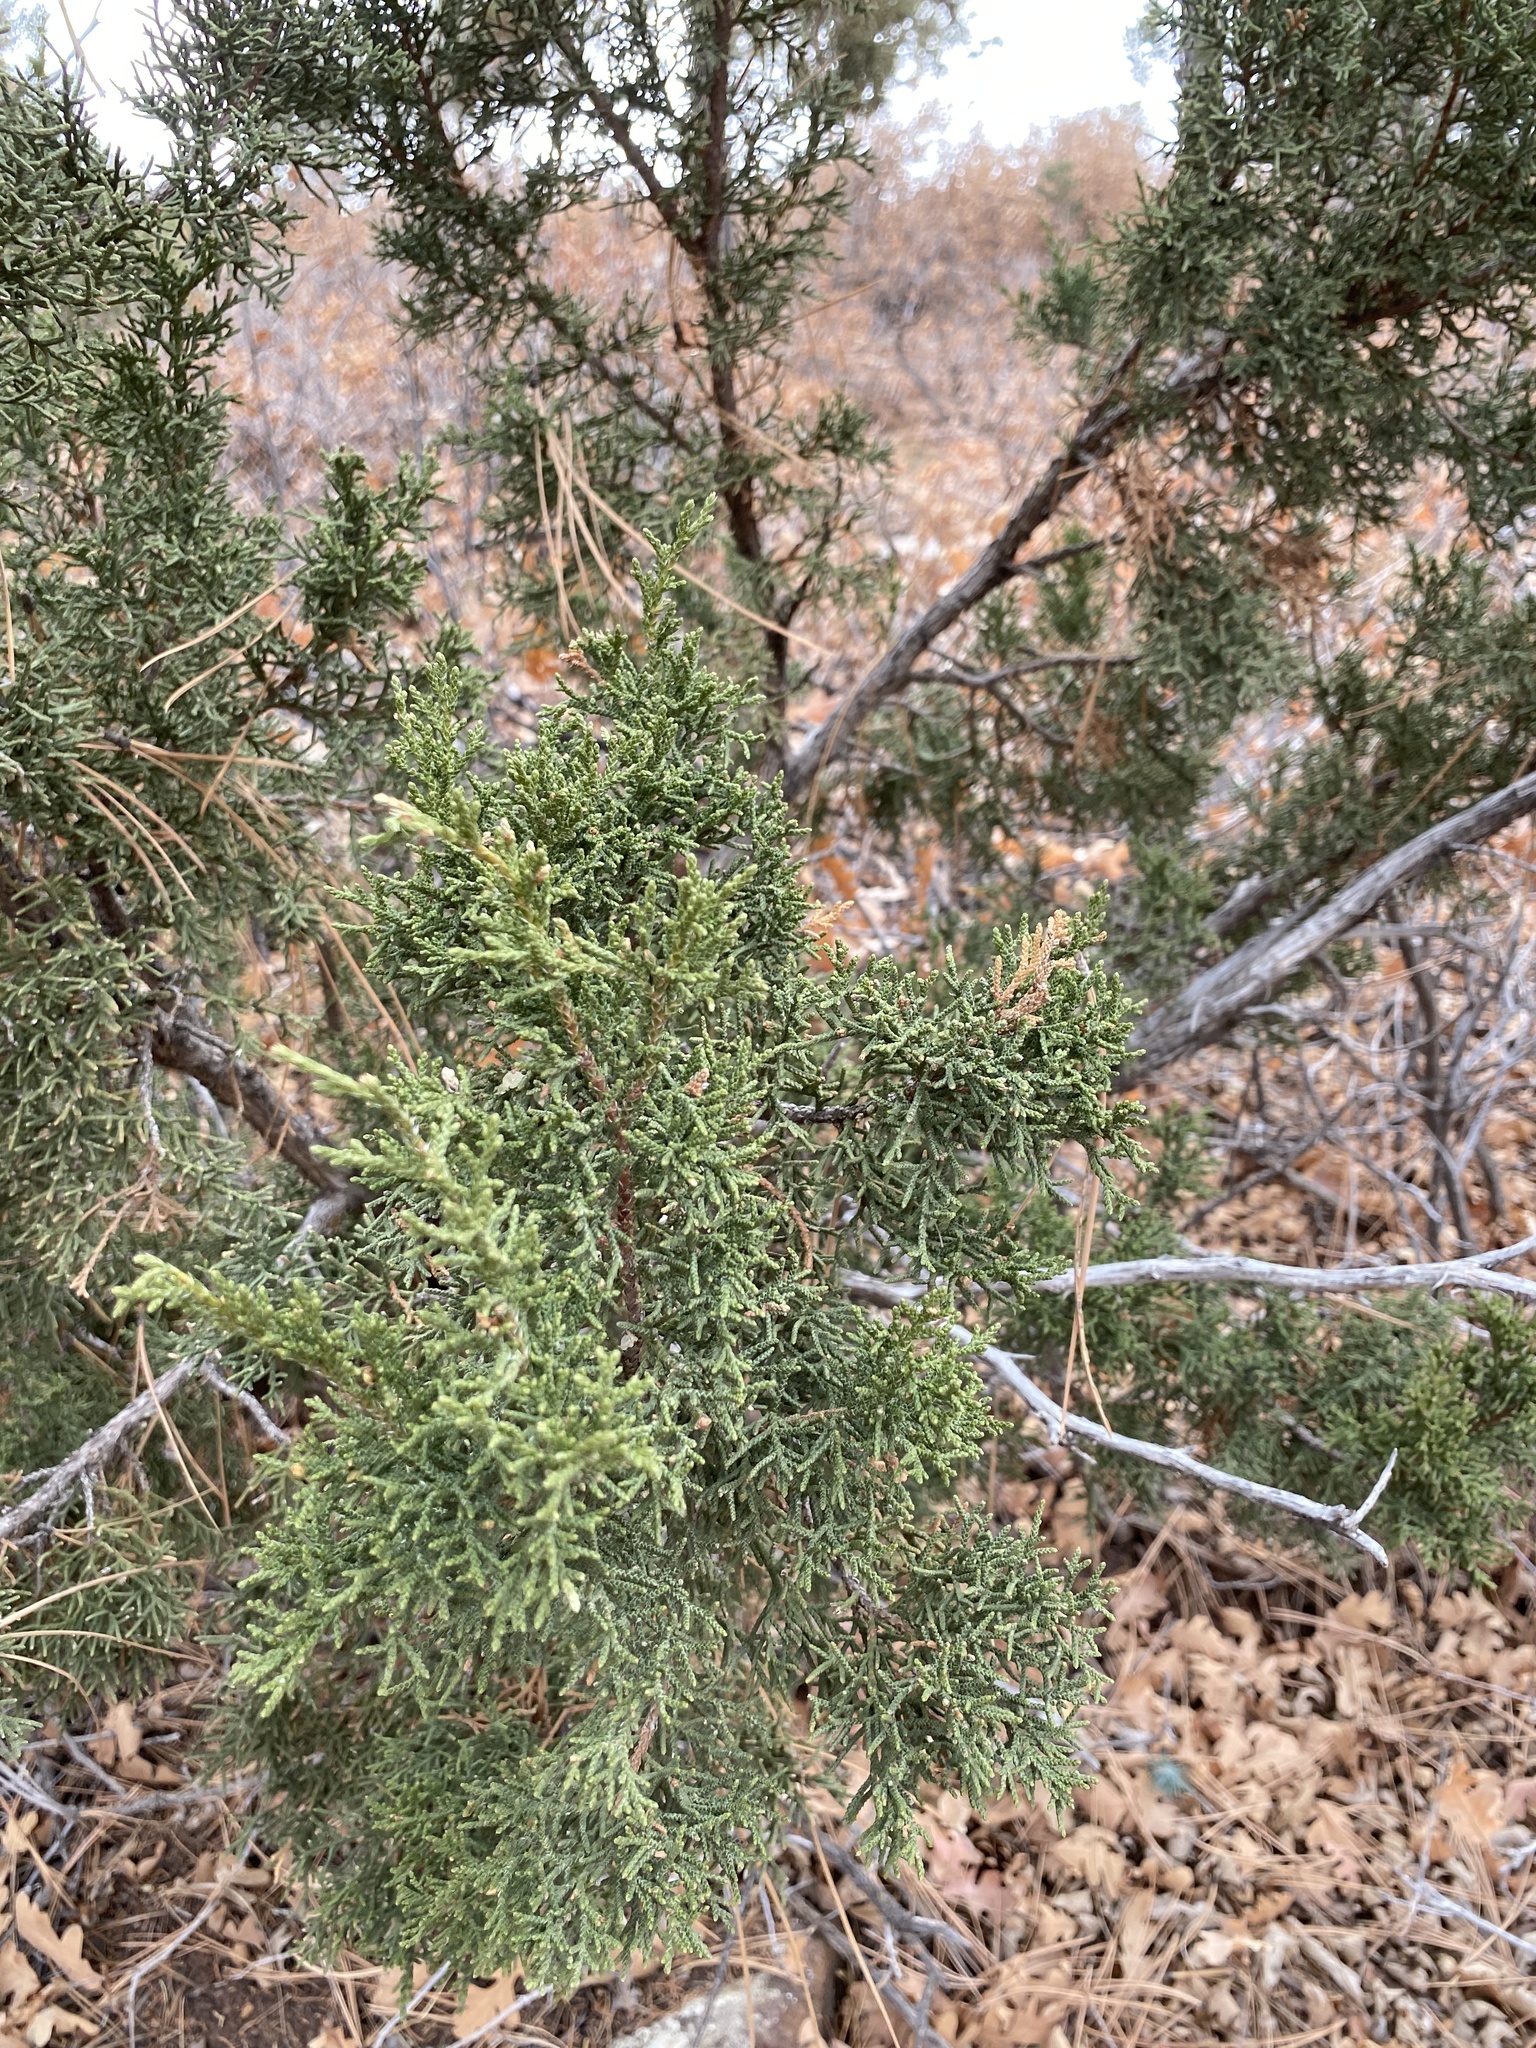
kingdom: Plantae
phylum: Tracheophyta
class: Pinopsida
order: Pinales
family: Cupressaceae
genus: Juniperus
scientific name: Juniperus monosperma
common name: One-seed juniper
